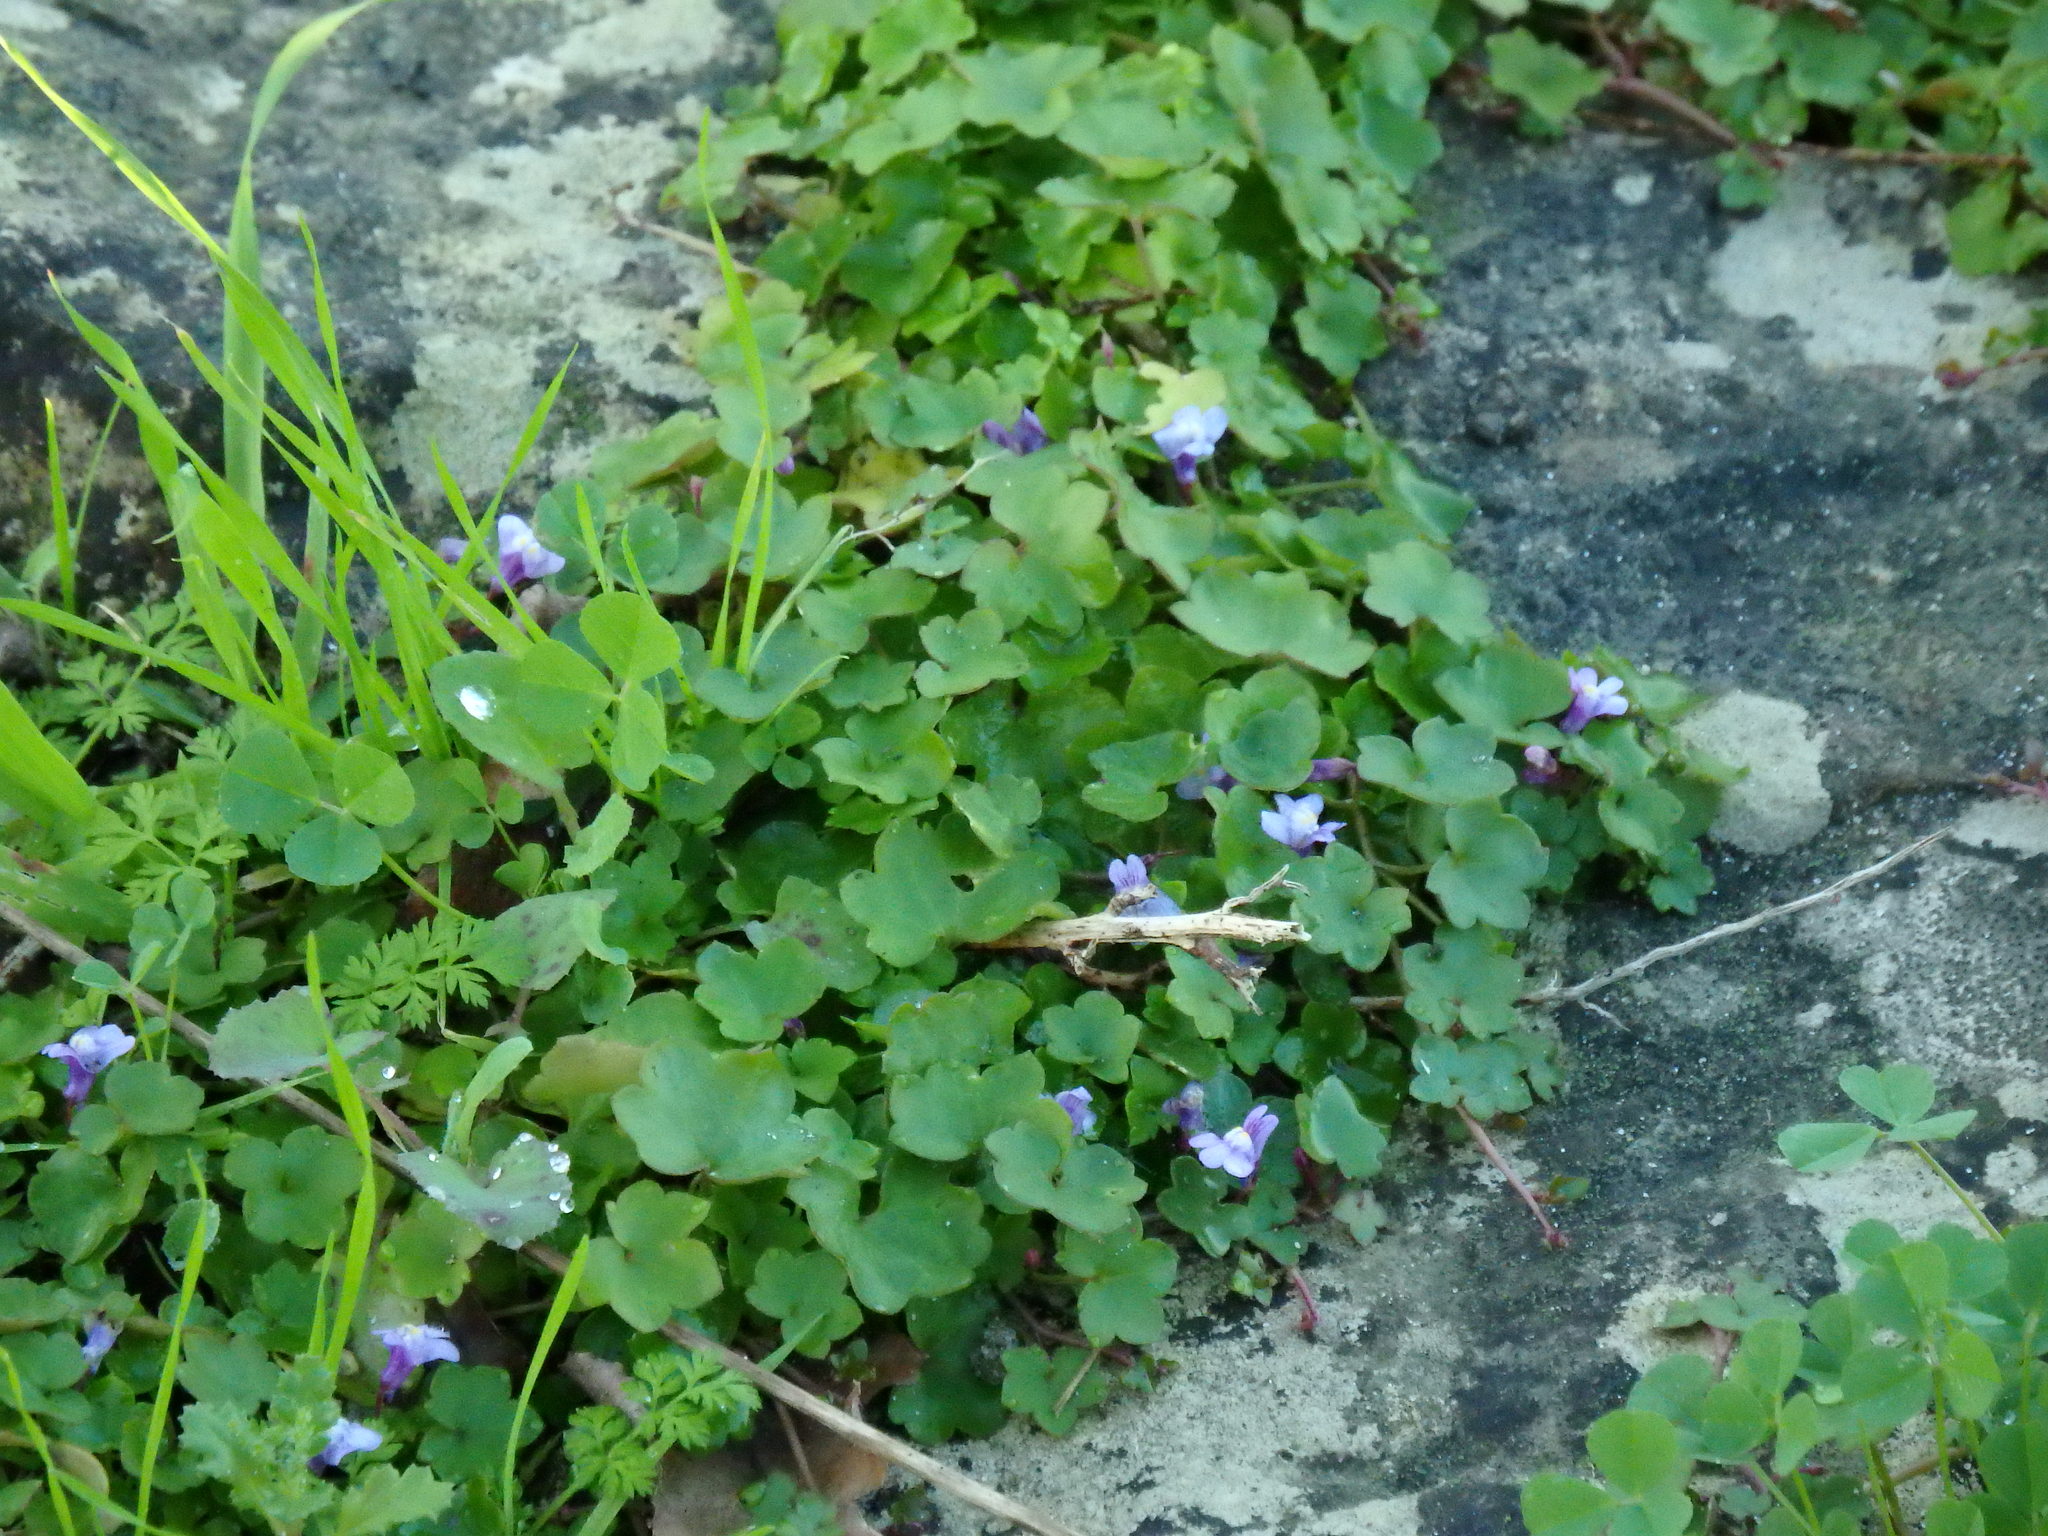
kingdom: Plantae
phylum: Tracheophyta
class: Magnoliopsida
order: Lamiales
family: Plantaginaceae
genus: Cymbalaria
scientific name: Cymbalaria muralis
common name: Ivy-leaved toadflax
